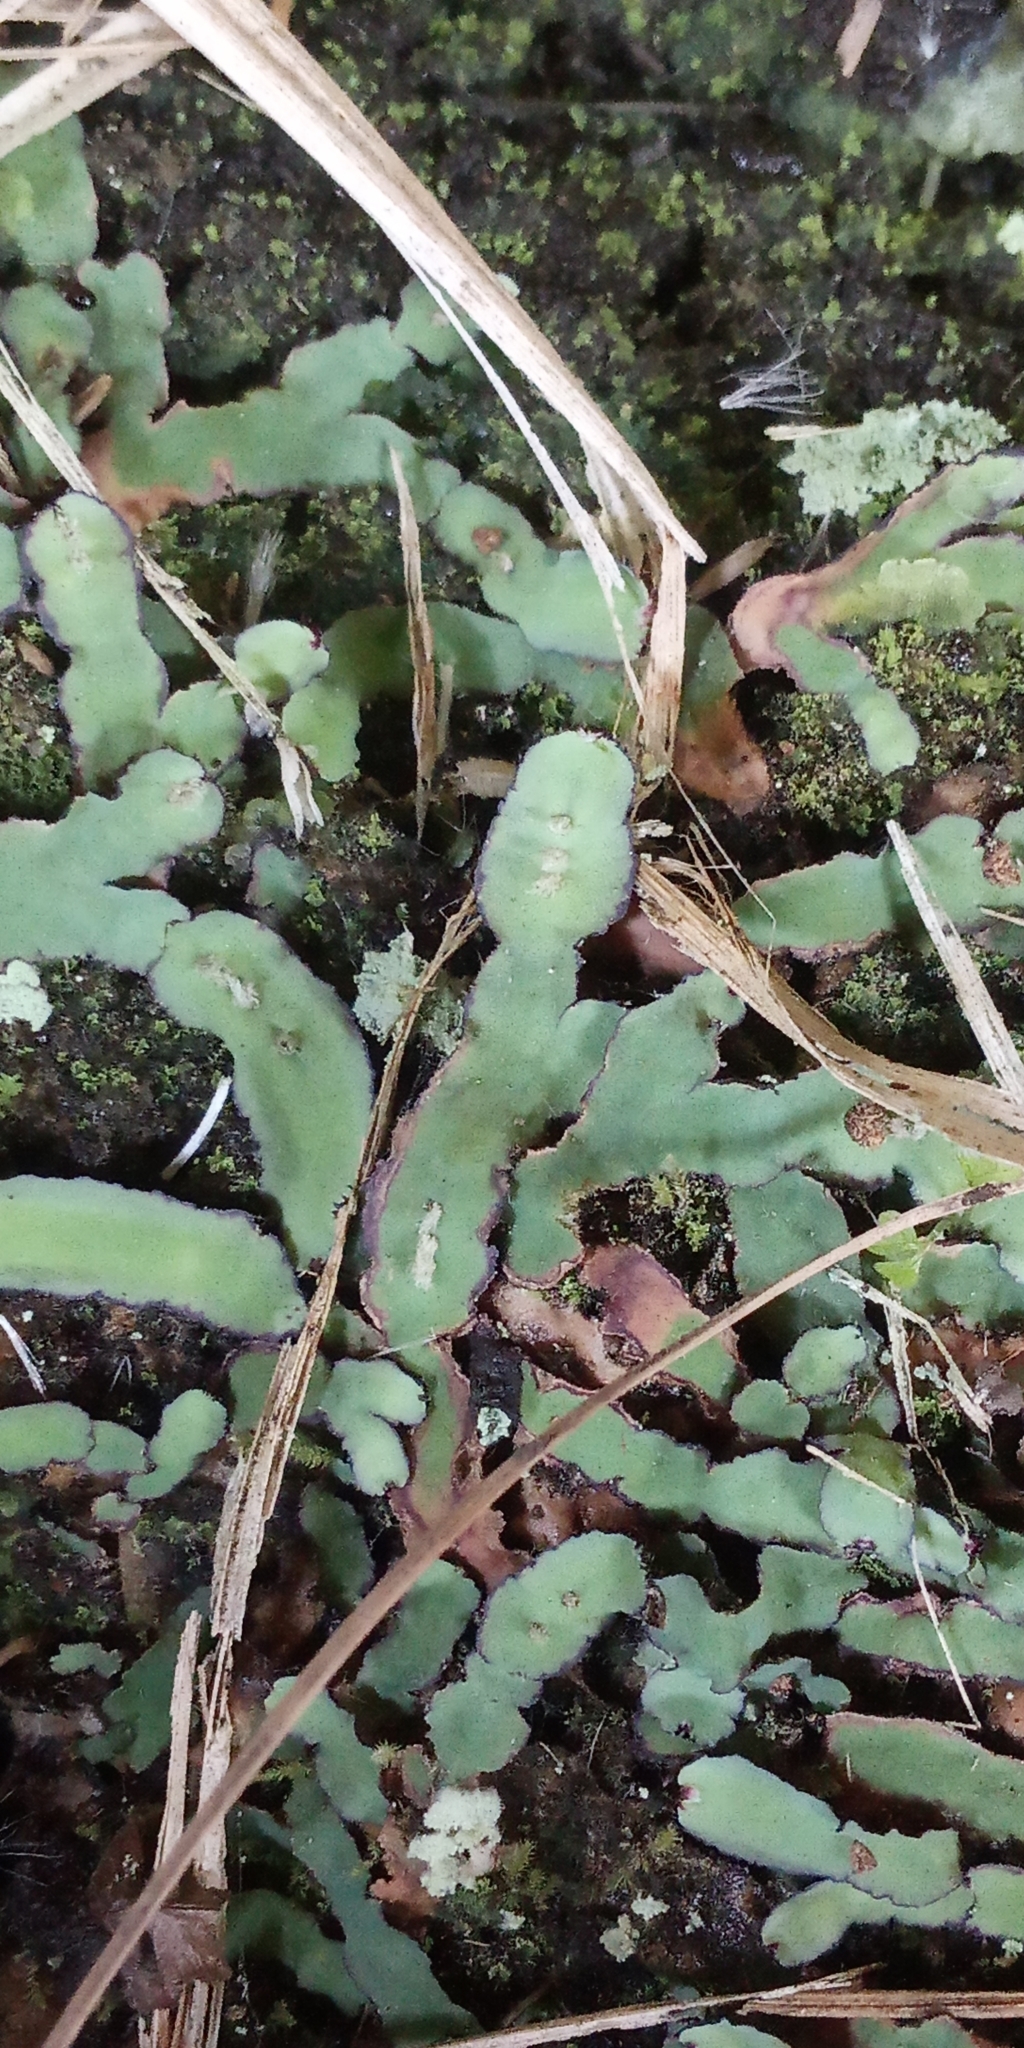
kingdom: Plantae
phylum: Marchantiophyta
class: Marchantiopsida
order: Marchantiales
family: Aytoniaceae
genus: Plagiochasma
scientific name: Plagiochasma rupestre
